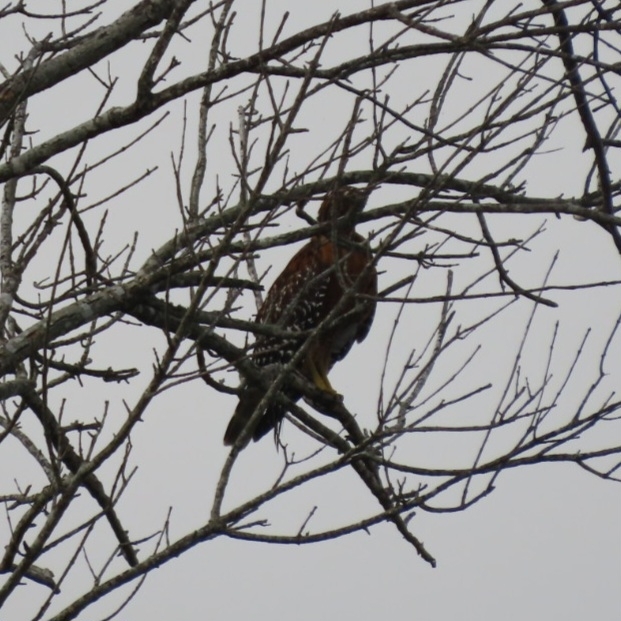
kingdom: Animalia
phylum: Chordata
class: Aves
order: Accipitriformes
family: Accipitridae
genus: Buteo
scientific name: Buteo lineatus
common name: Red-shouldered hawk
